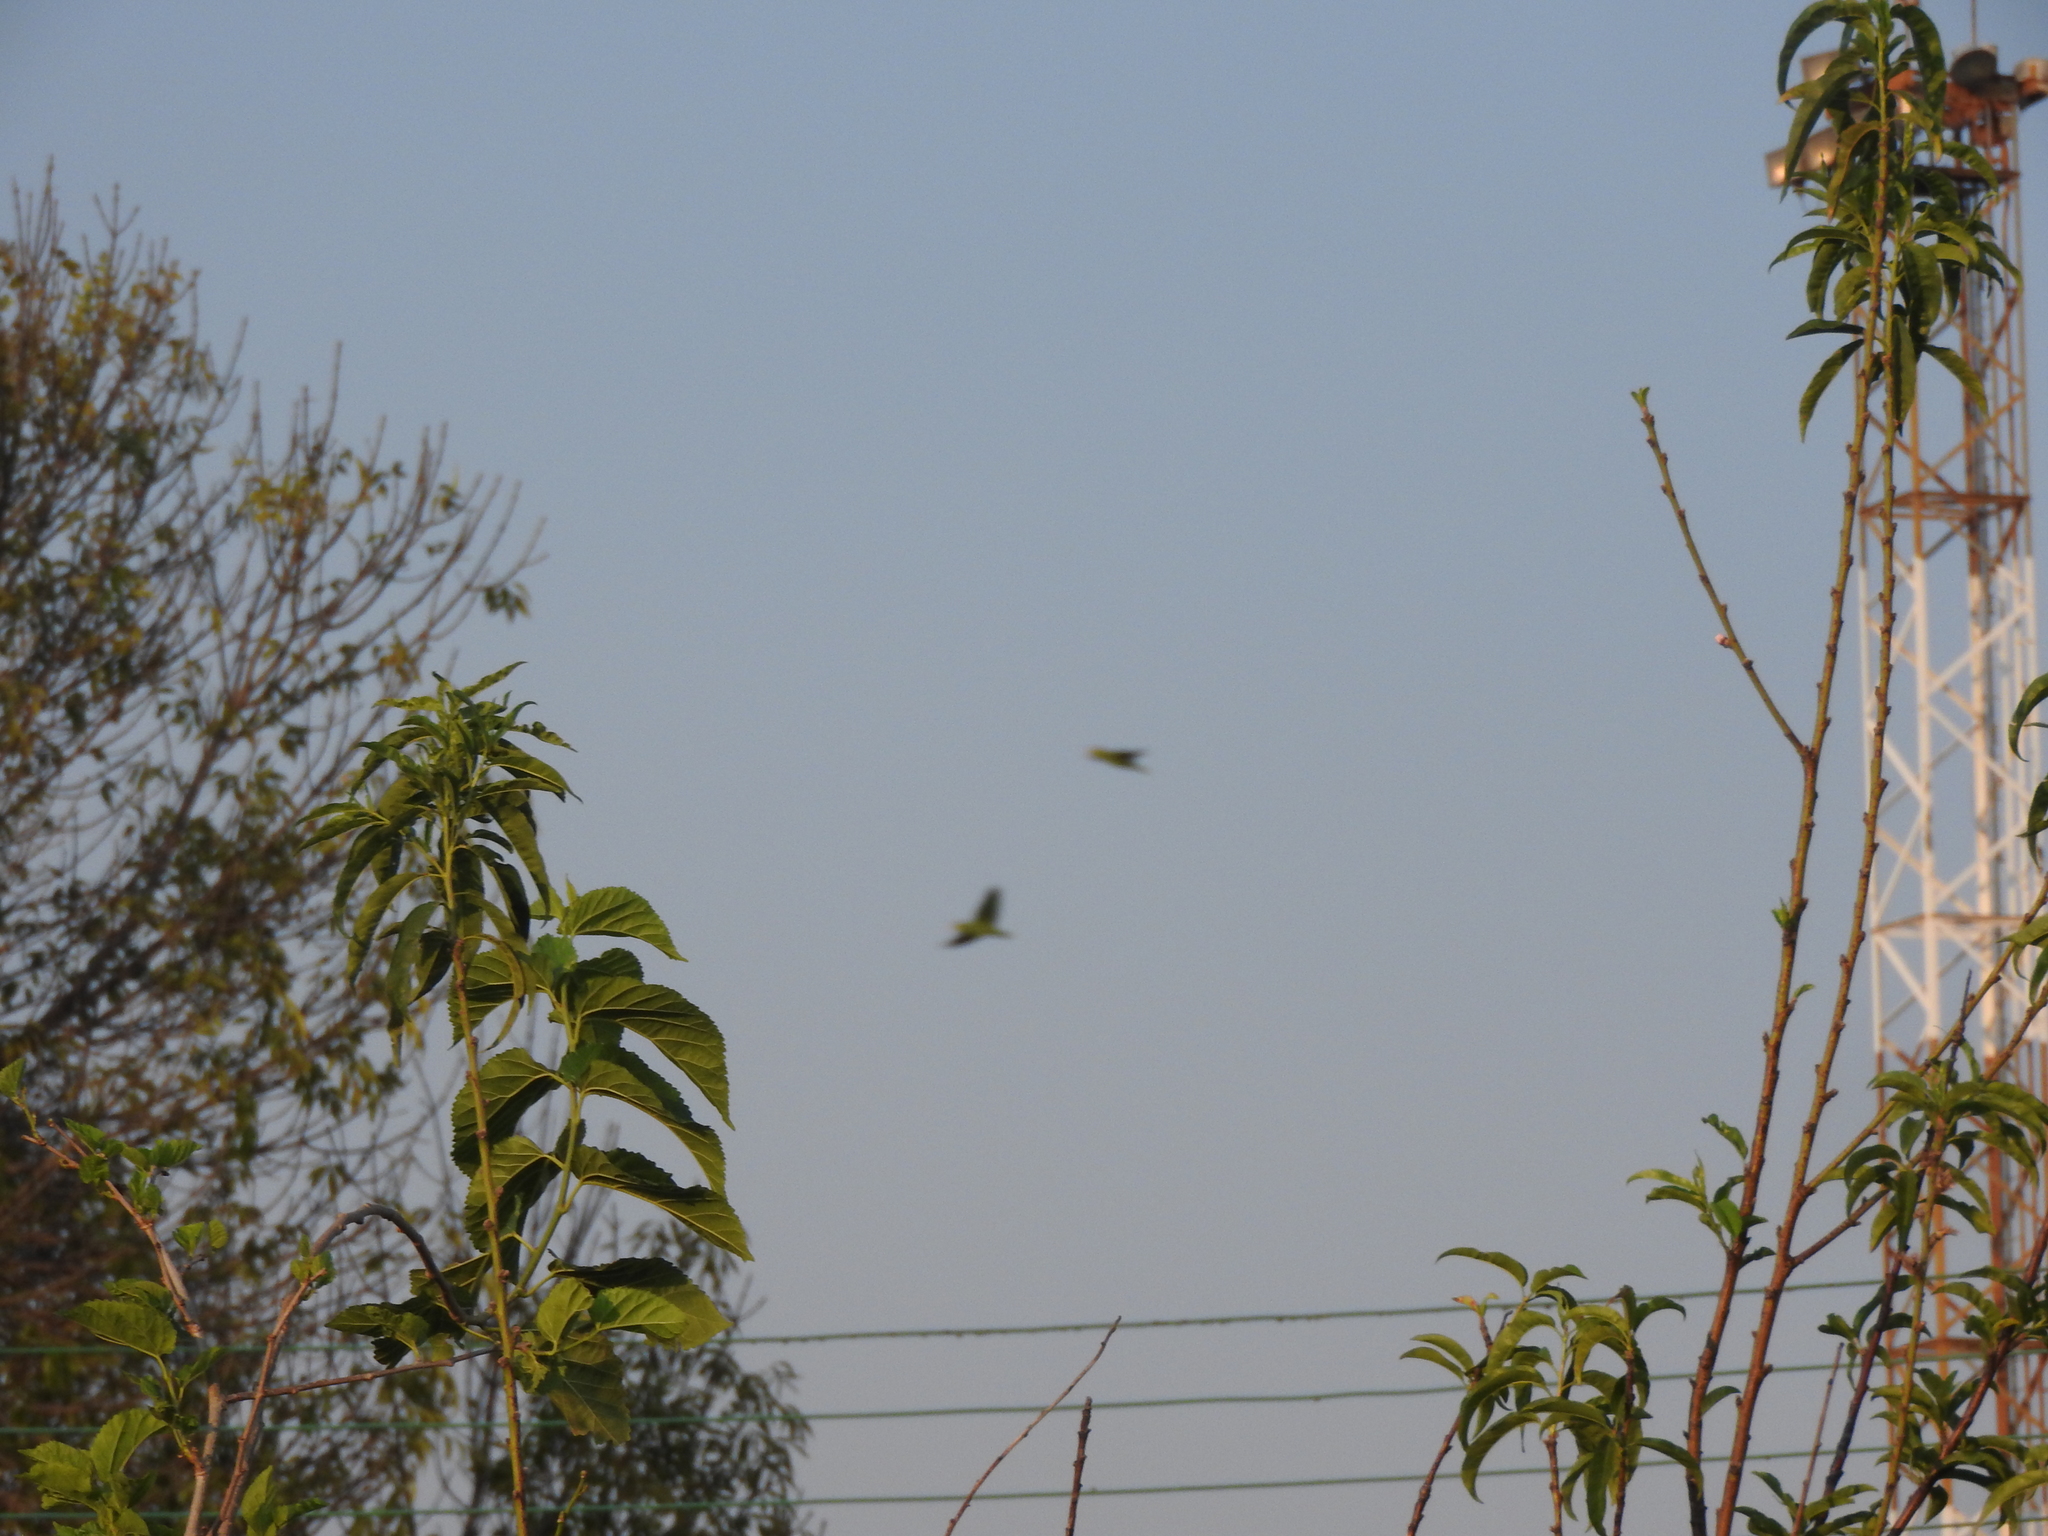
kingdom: Animalia
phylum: Chordata
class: Aves
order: Psittaciformes
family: Psittacidae
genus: Amazona
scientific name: Amazona finschi
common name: Lilac-crowned amazon
